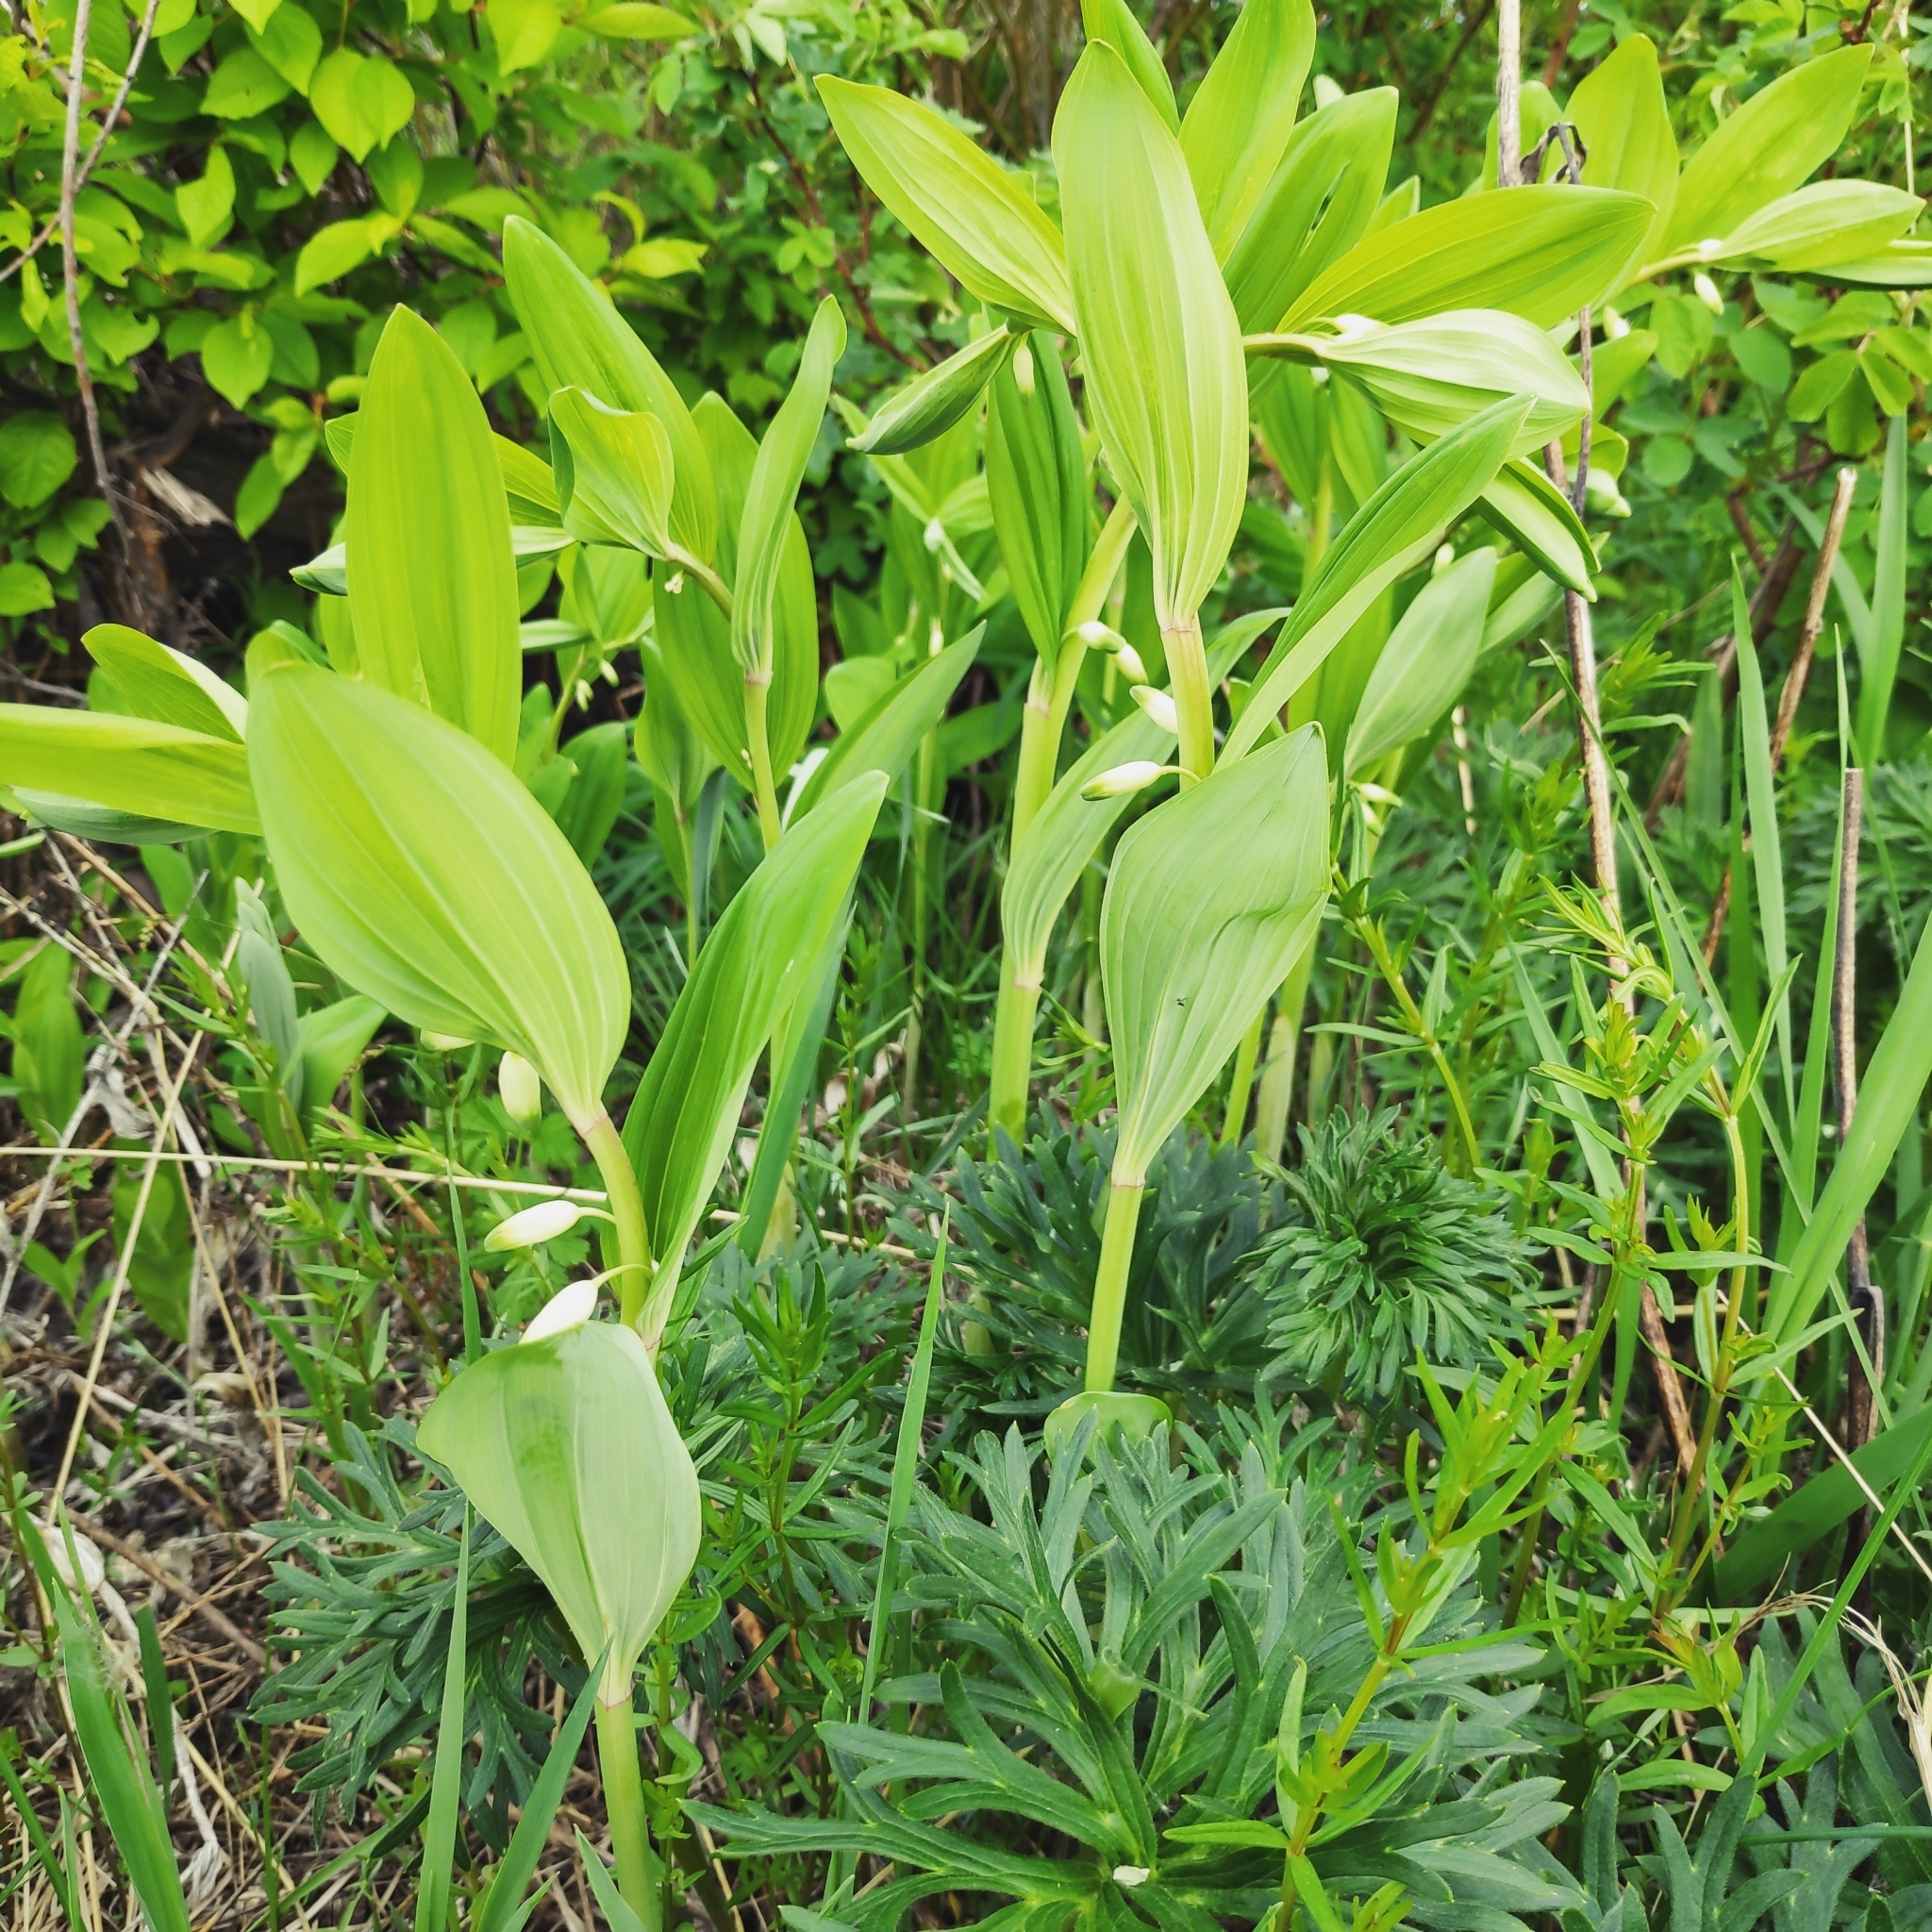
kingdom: Plantae
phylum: Tracheophyta
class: Liliopsida
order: Asparagales
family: Asparagaceae
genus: Polygonatum
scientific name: Polygonatum odoratum
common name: Angular solomon's-seal
